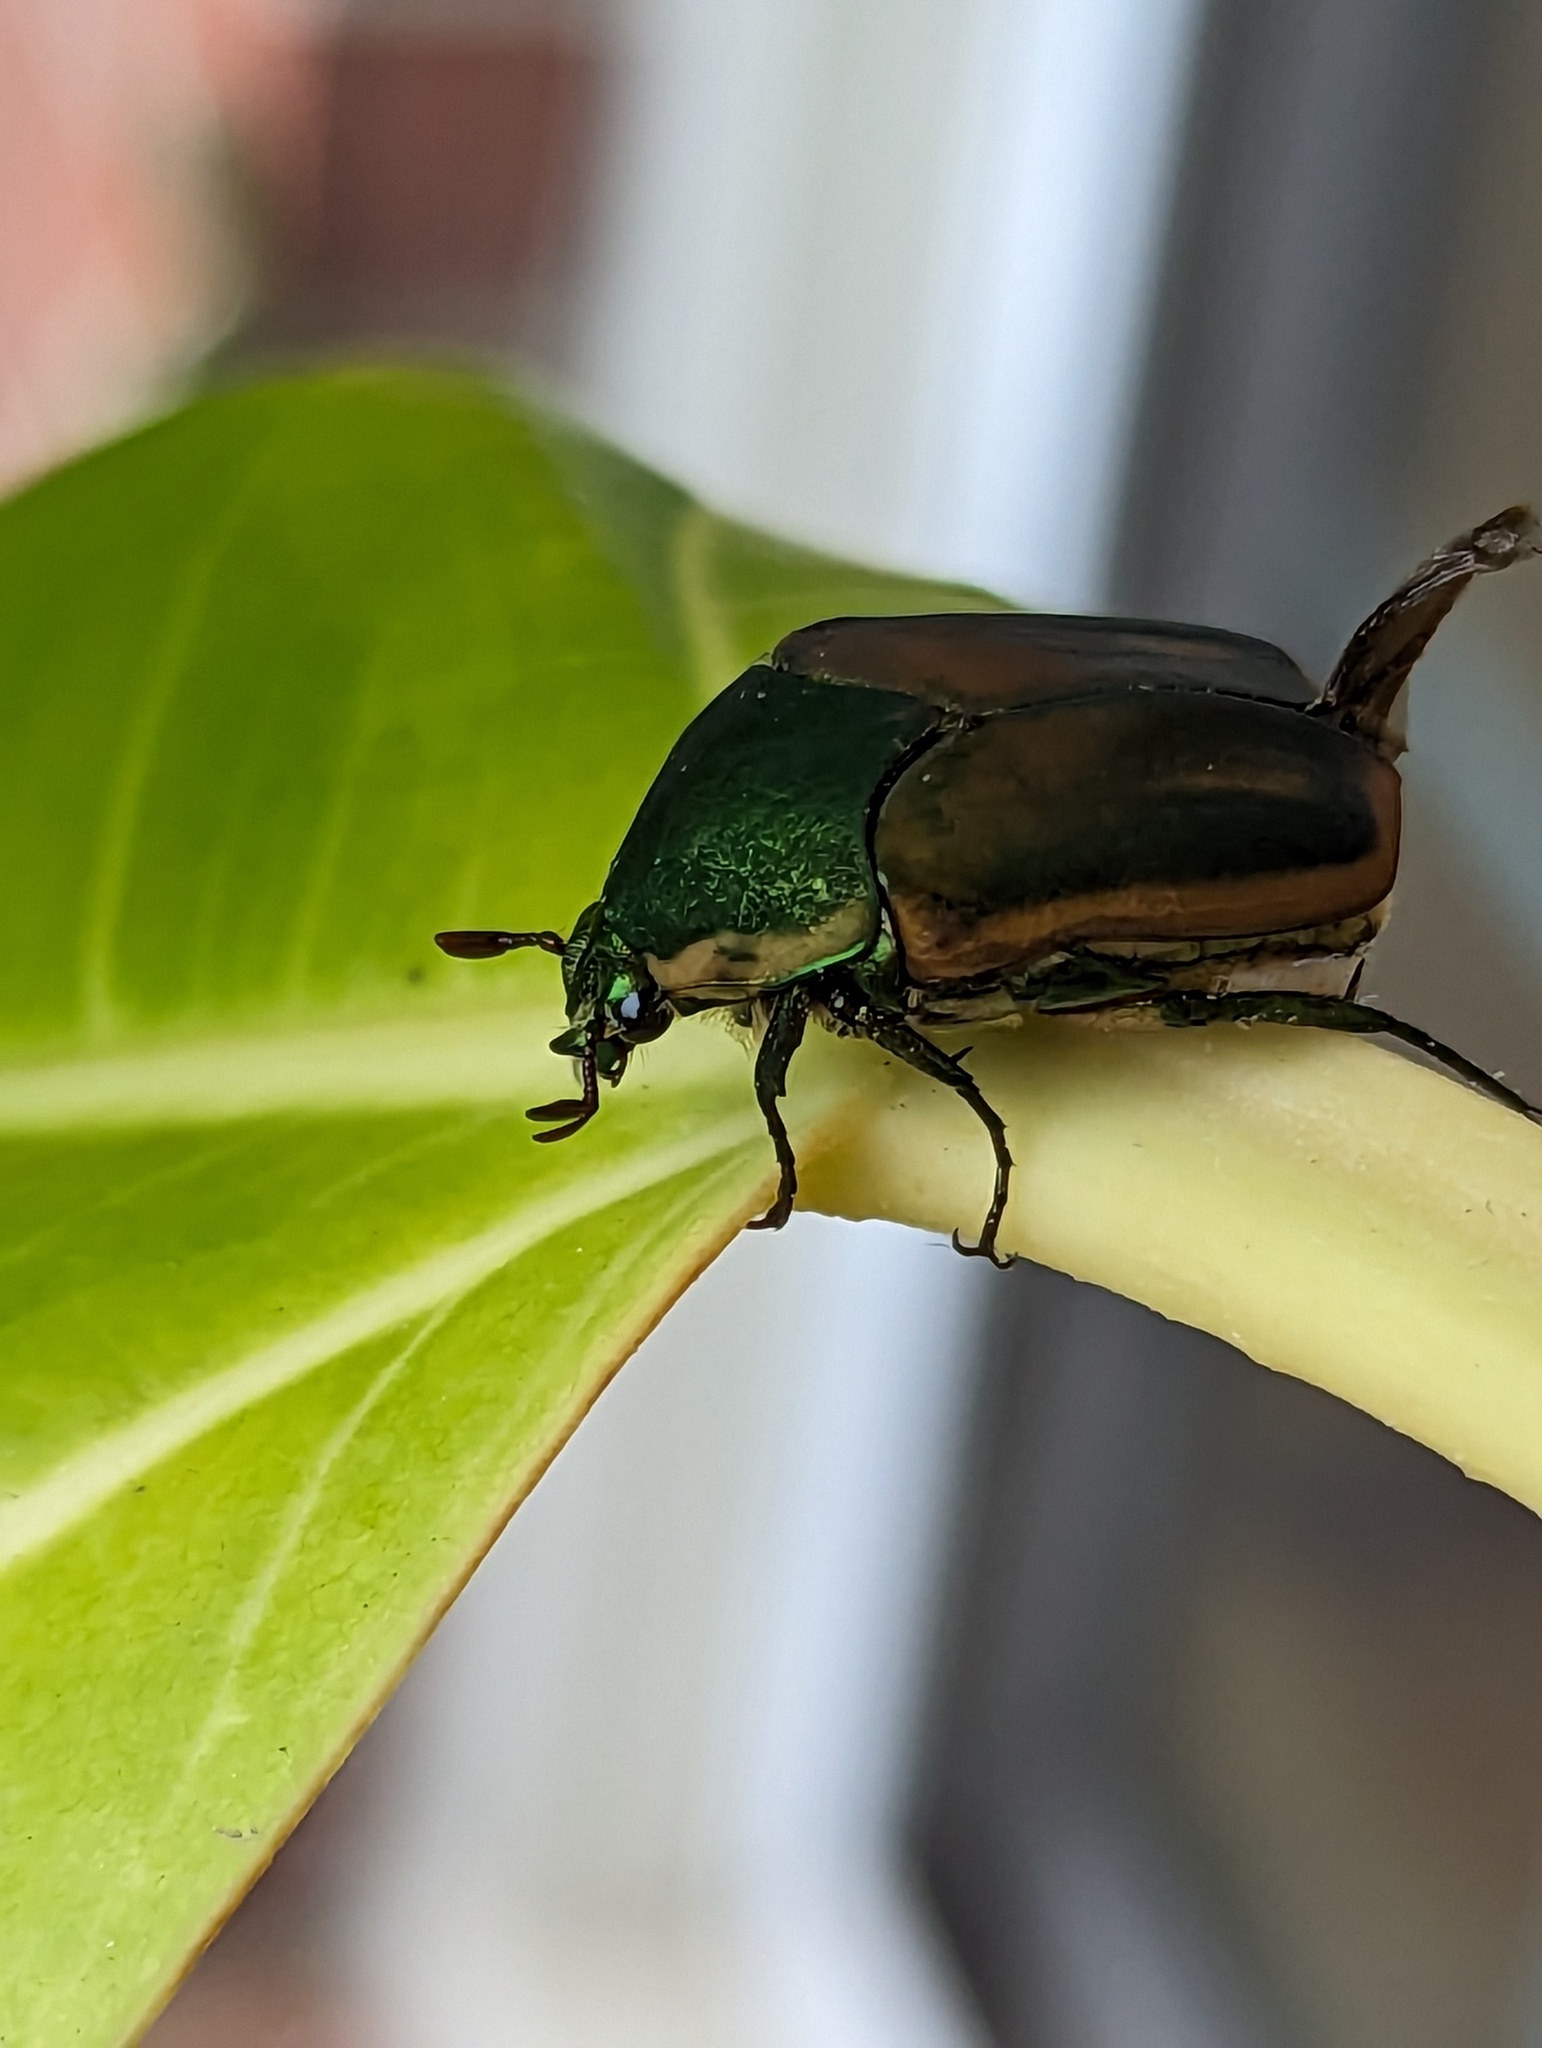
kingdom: Animalia
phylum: Arthropoda
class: Insecta
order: Coleoptera
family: Scarabaeidae
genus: Cotinis
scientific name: Cotinis nitida
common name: Common green june beetle
